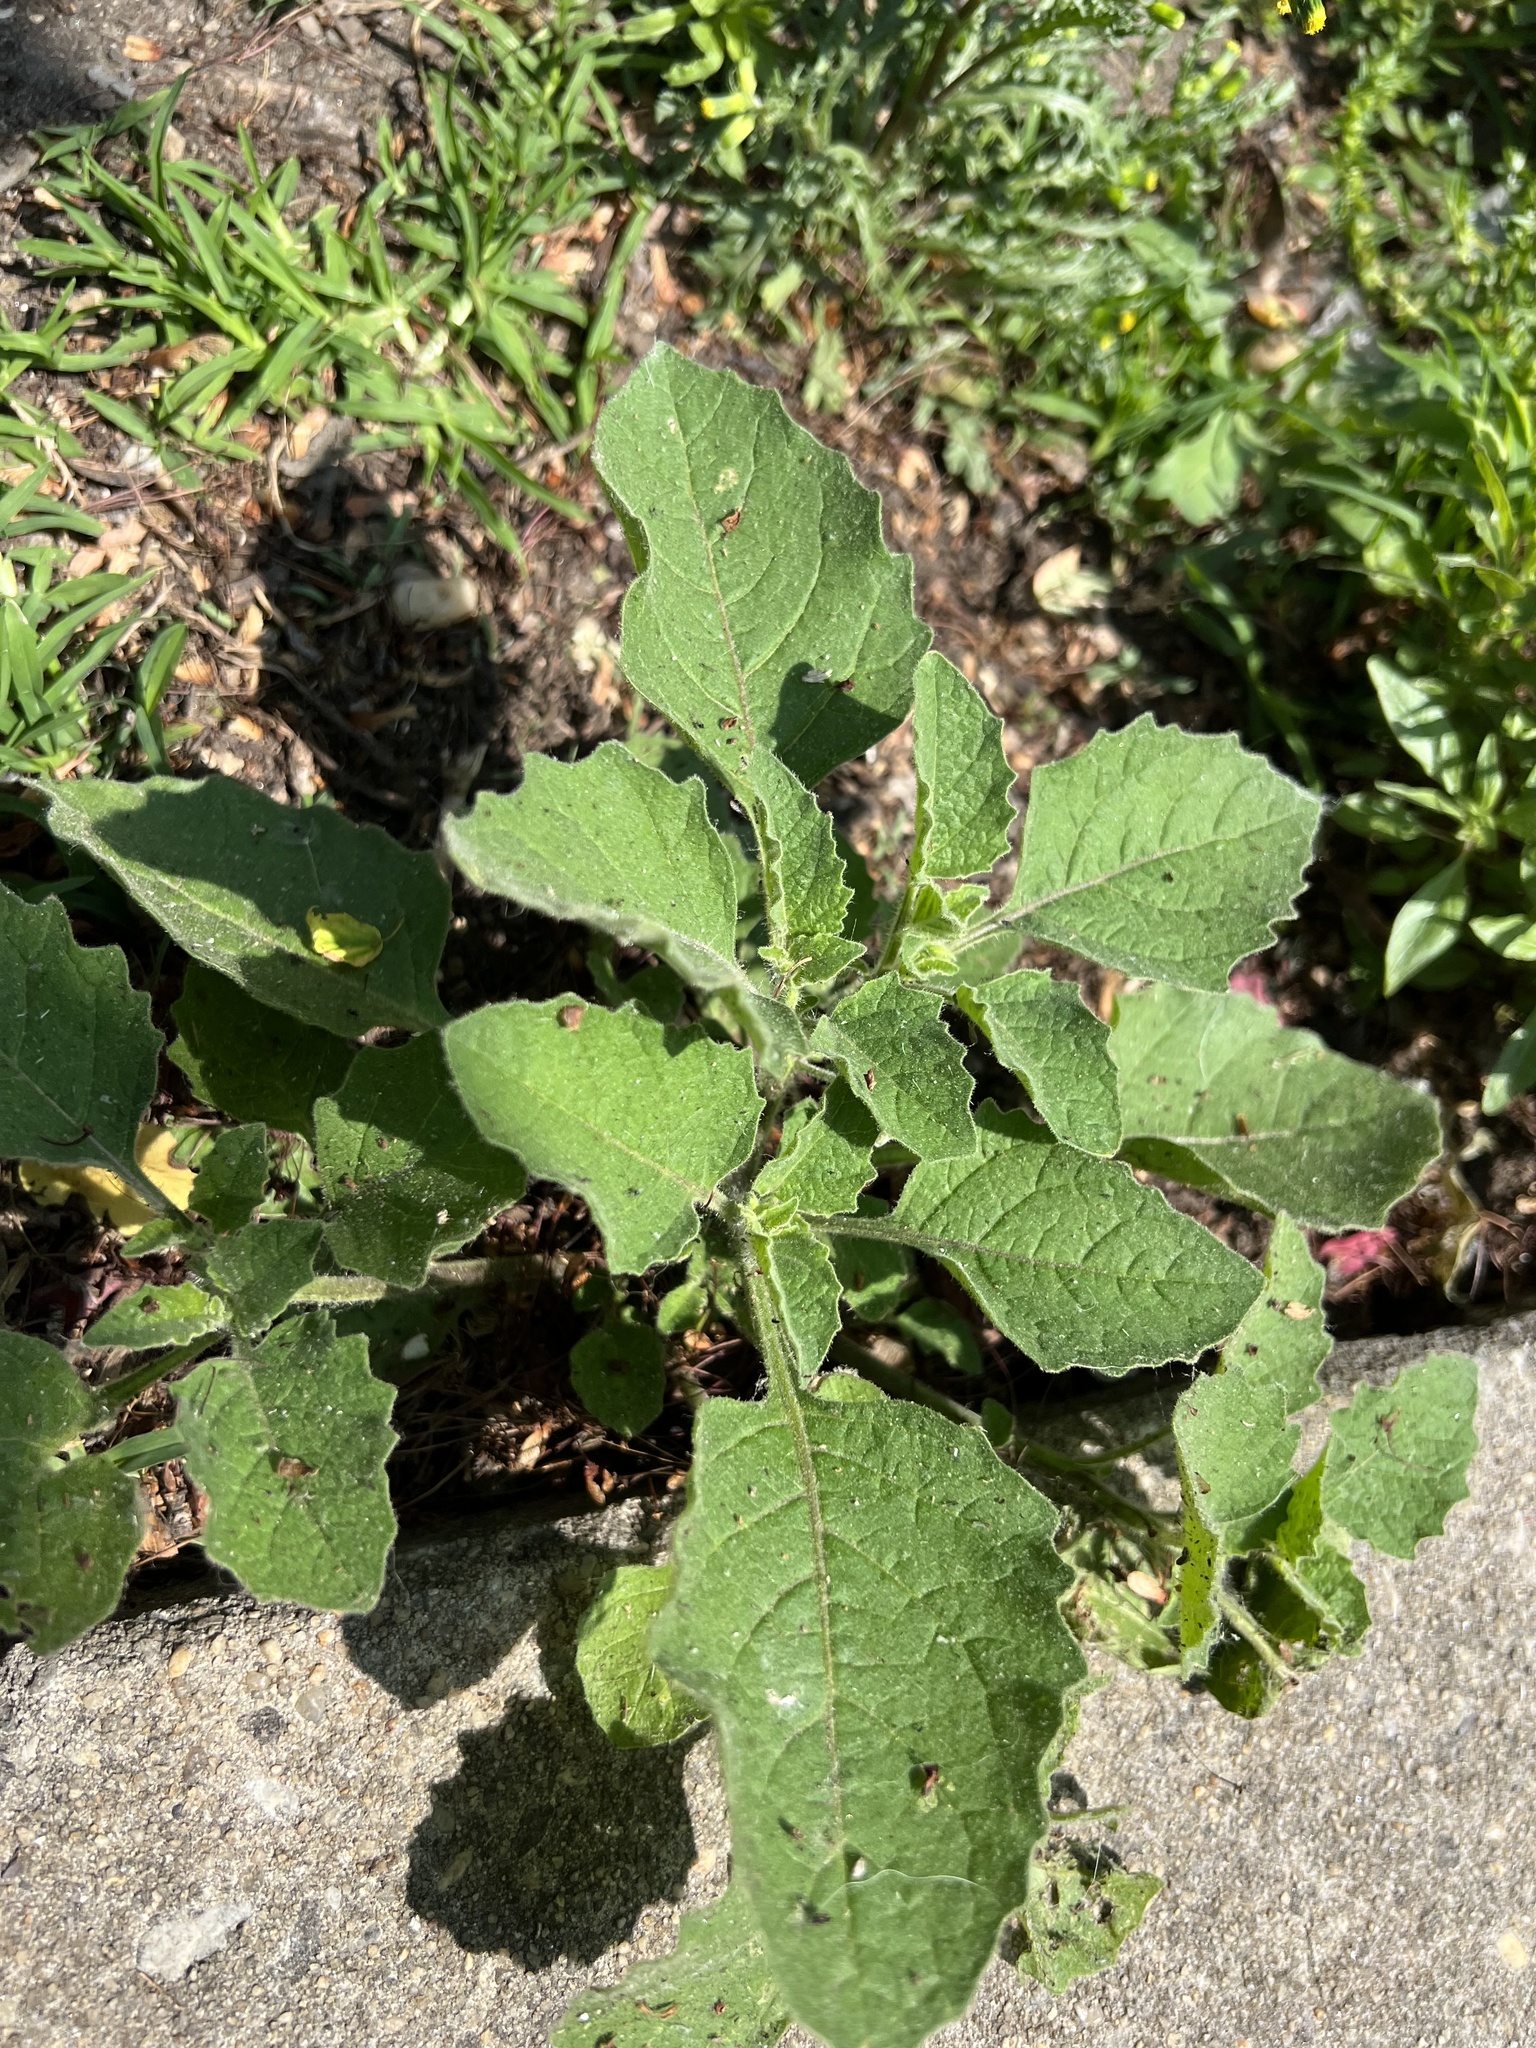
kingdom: Plantae
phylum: Tracheophyta
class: Magnoliopsida
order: Solanales
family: Solanaceae
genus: Solanum
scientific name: Solanum sarrachoides
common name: Leafy-fruited nightshade
